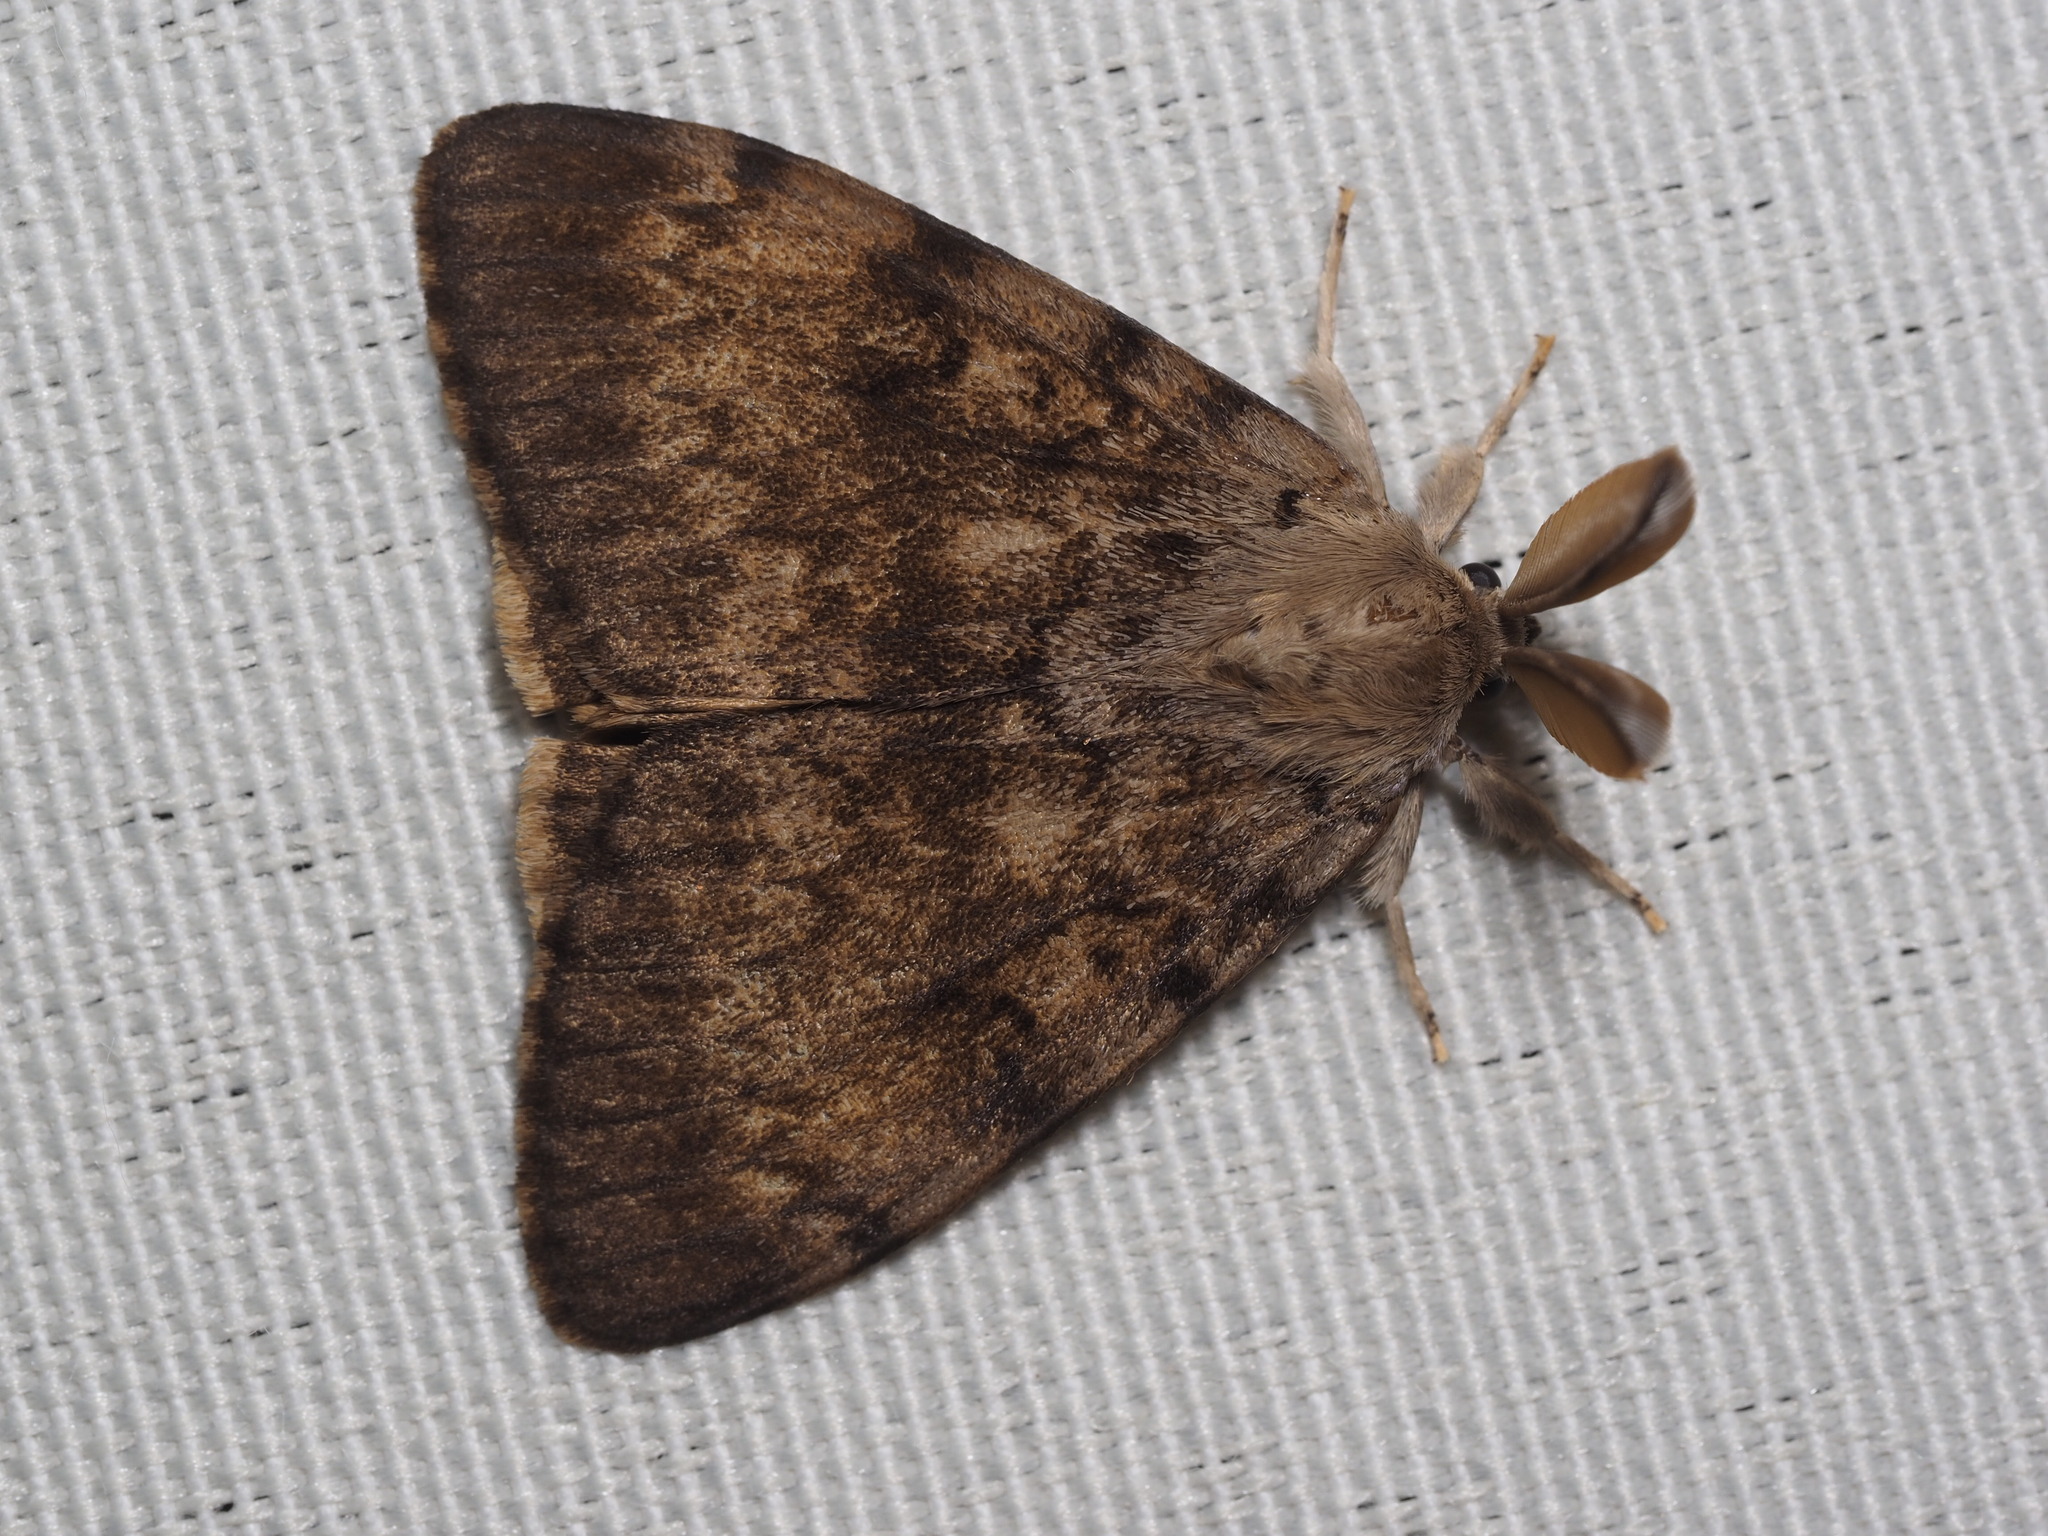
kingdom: Animalia
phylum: Arthropoda
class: Insecta
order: Lepidoptera
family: Erebidae
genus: Lymantria
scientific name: Lymantria dispar
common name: Gypsy moth
